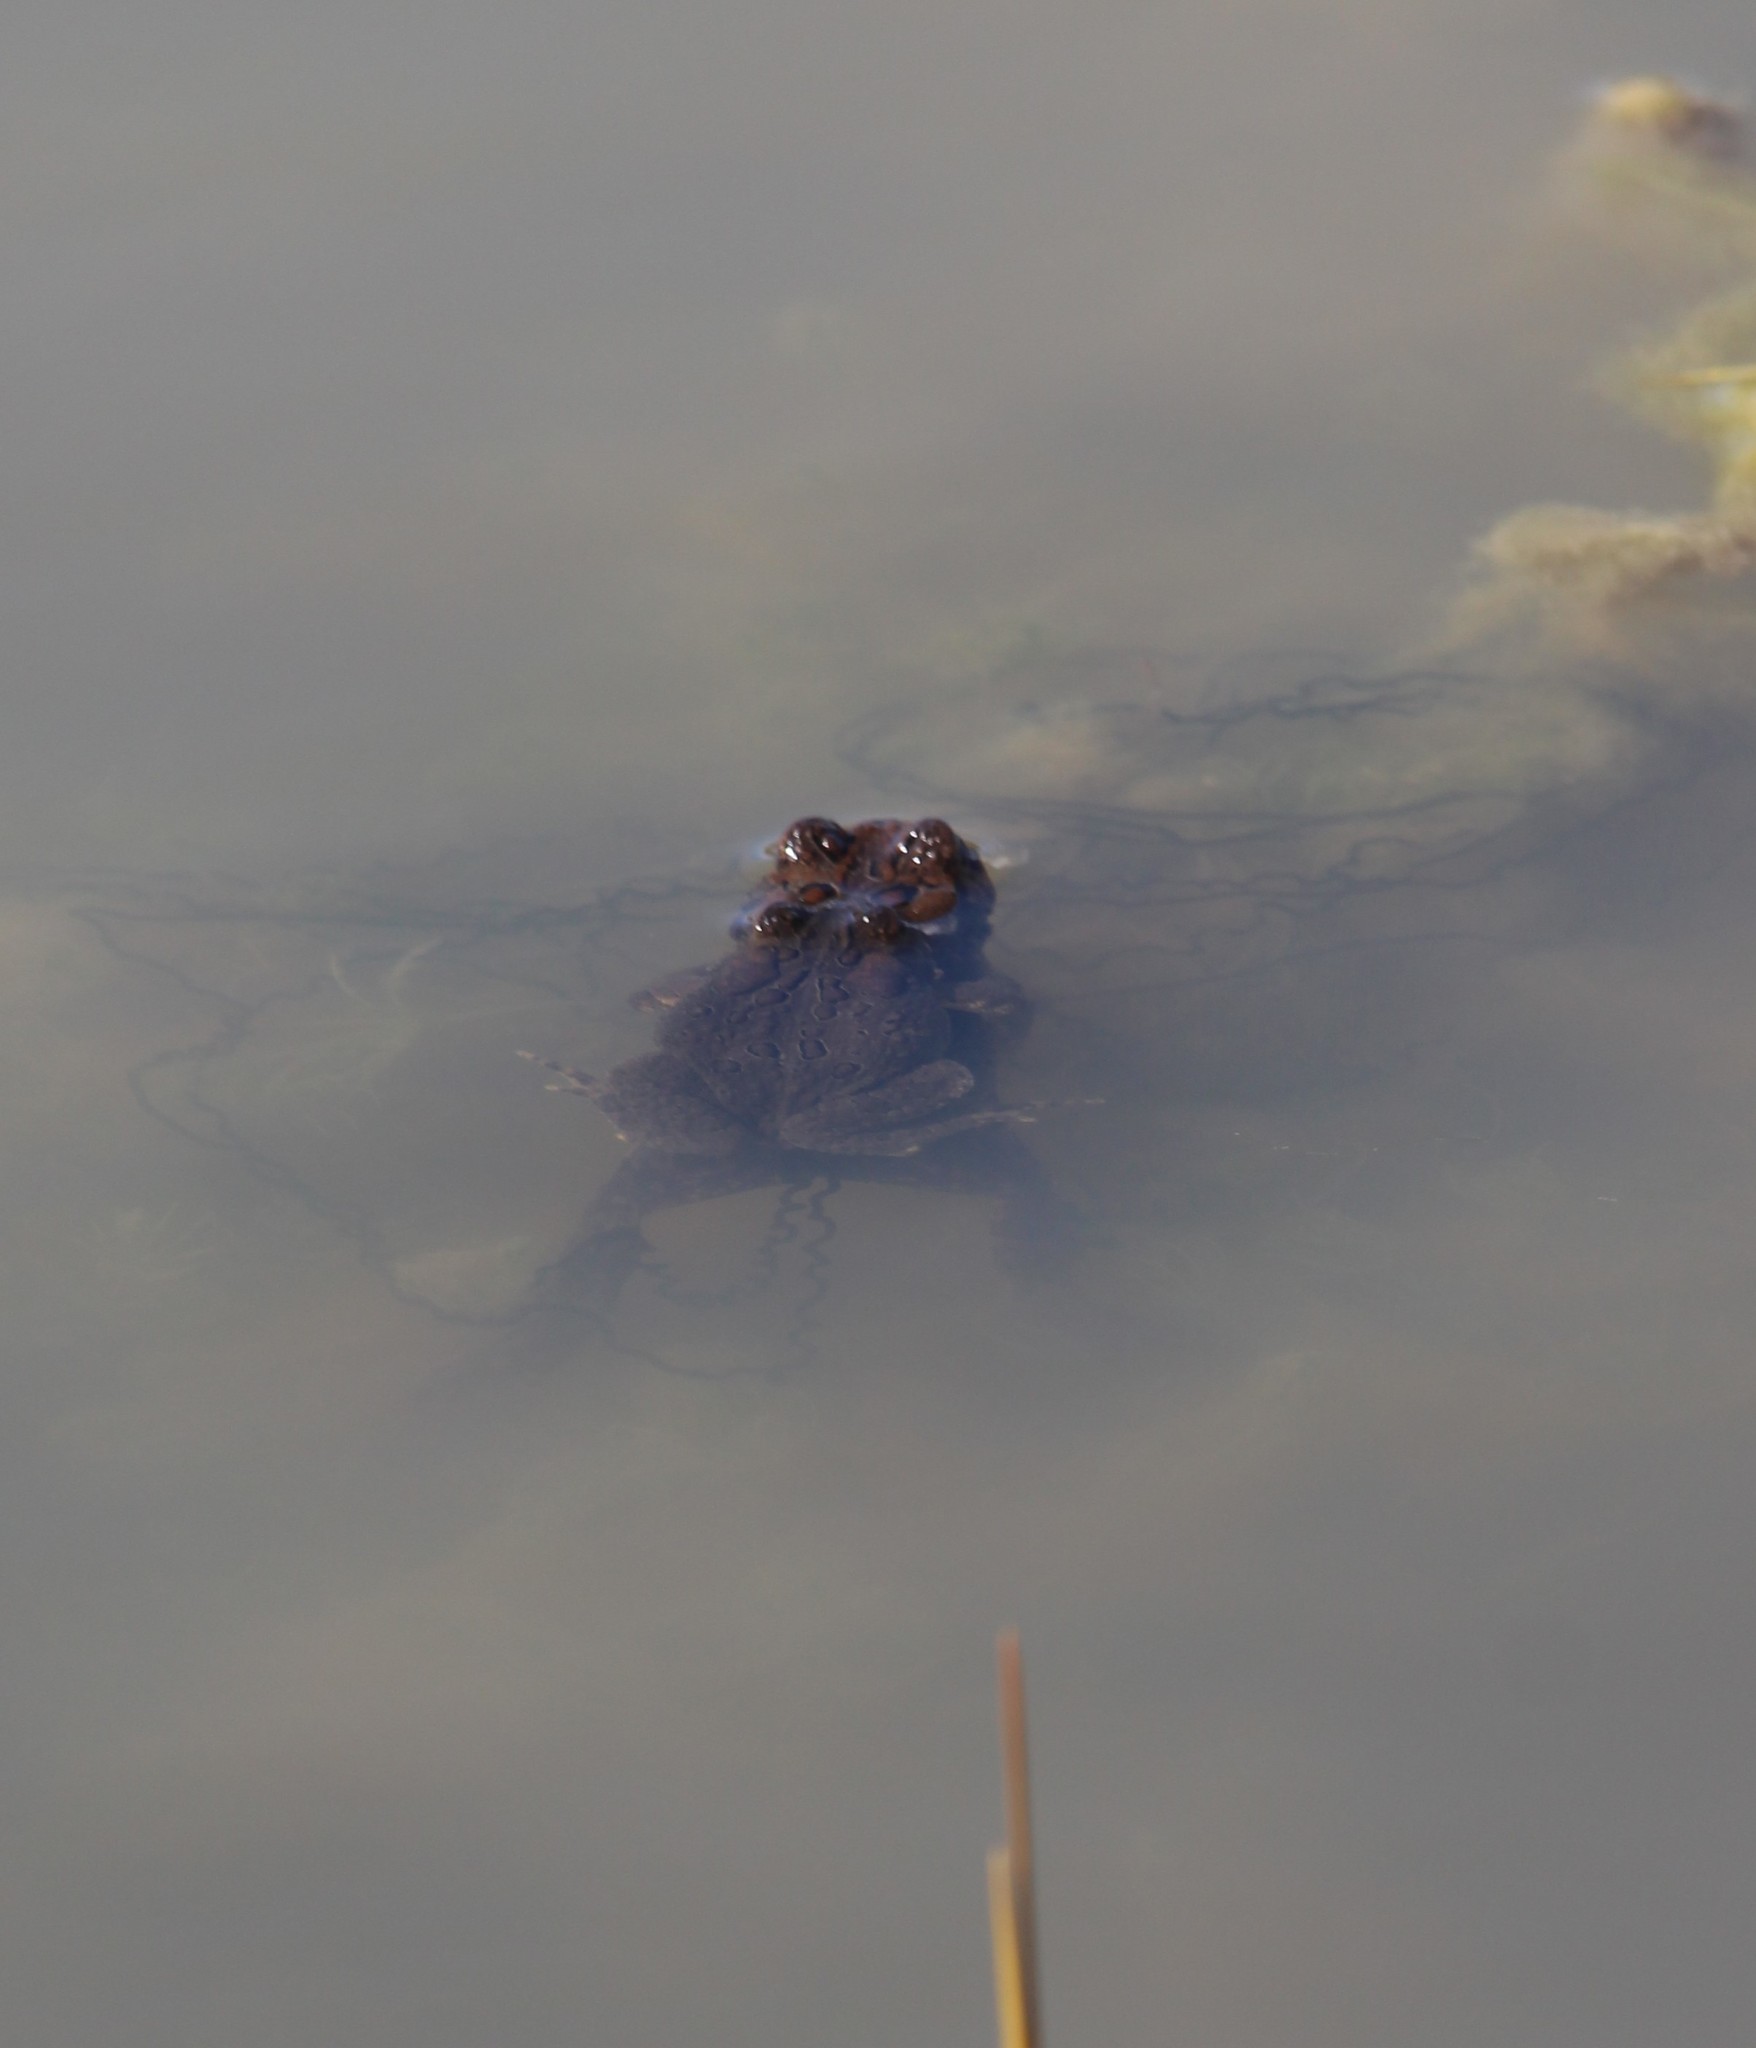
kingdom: Animalia
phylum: Chordata
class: Amphibia
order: Anura
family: Bufonidae
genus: Anaxyrus
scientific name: Anaxyrus americanus
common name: American toad
